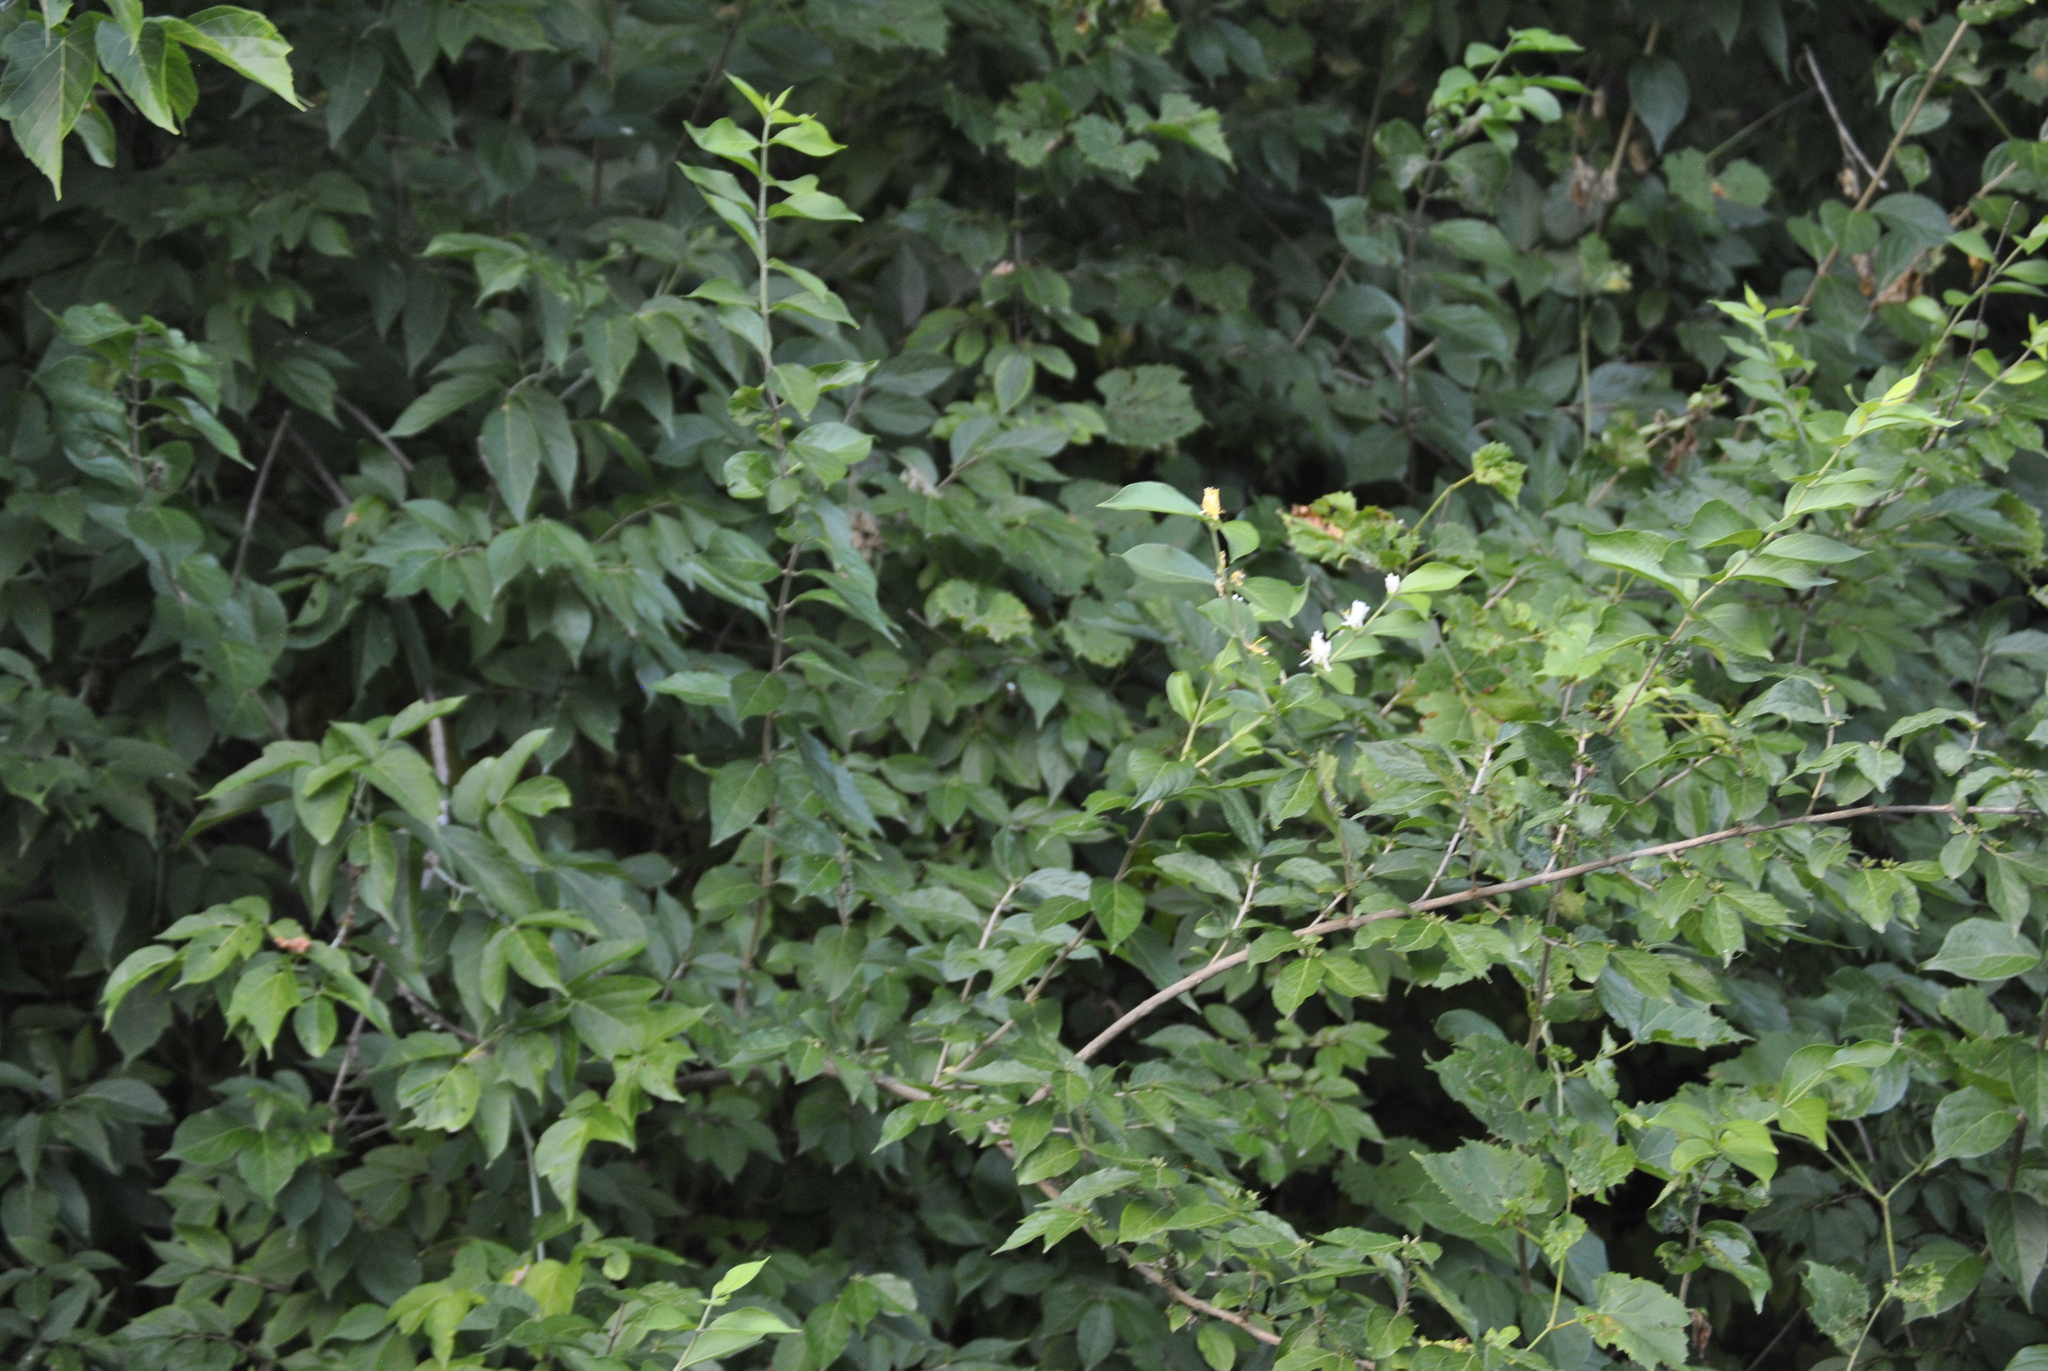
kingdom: Plantae
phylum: Tracheophyta
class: Magnoliopsida
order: Dipsacales
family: Caprifoliaceae
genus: Lonicera
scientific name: Lonicera maackii
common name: Amur honeysuckle
